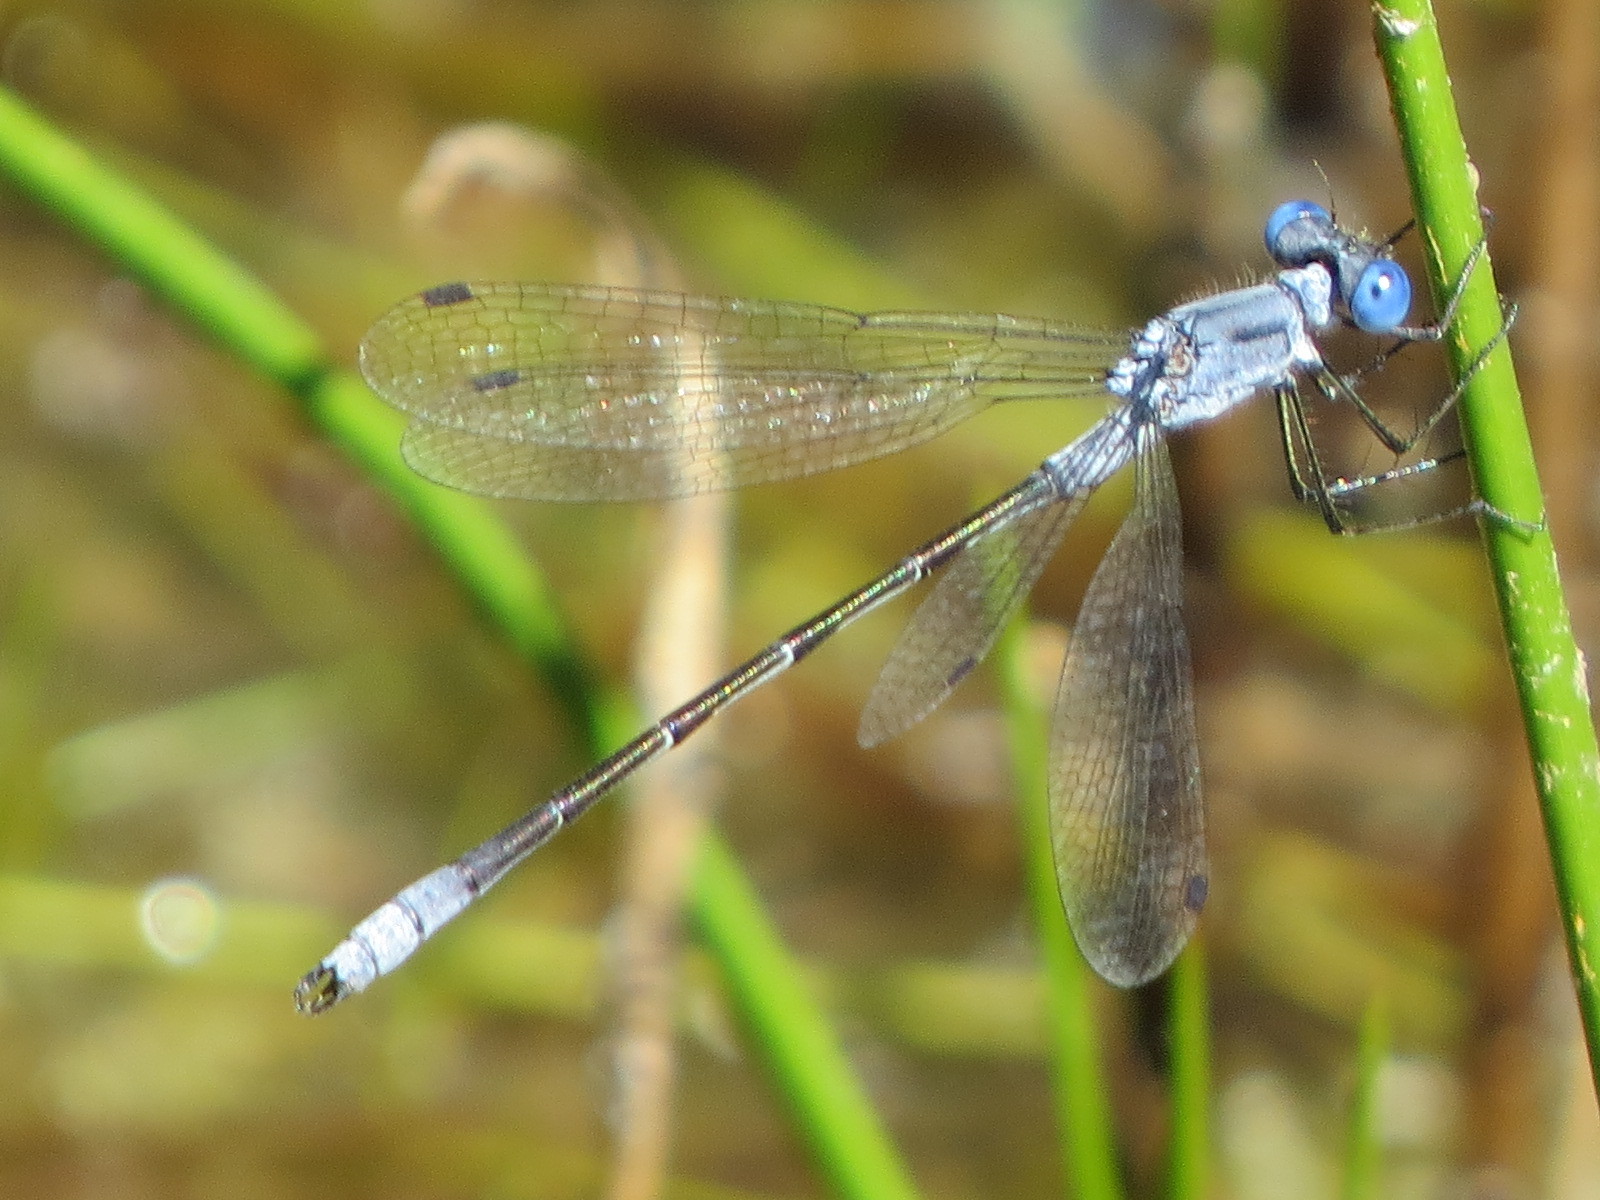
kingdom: Animalia
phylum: Arthropoda
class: Insecta
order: Odonata
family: Lestidae
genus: Lestes
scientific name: Lestes disjunctus
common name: Northern spreadwing
